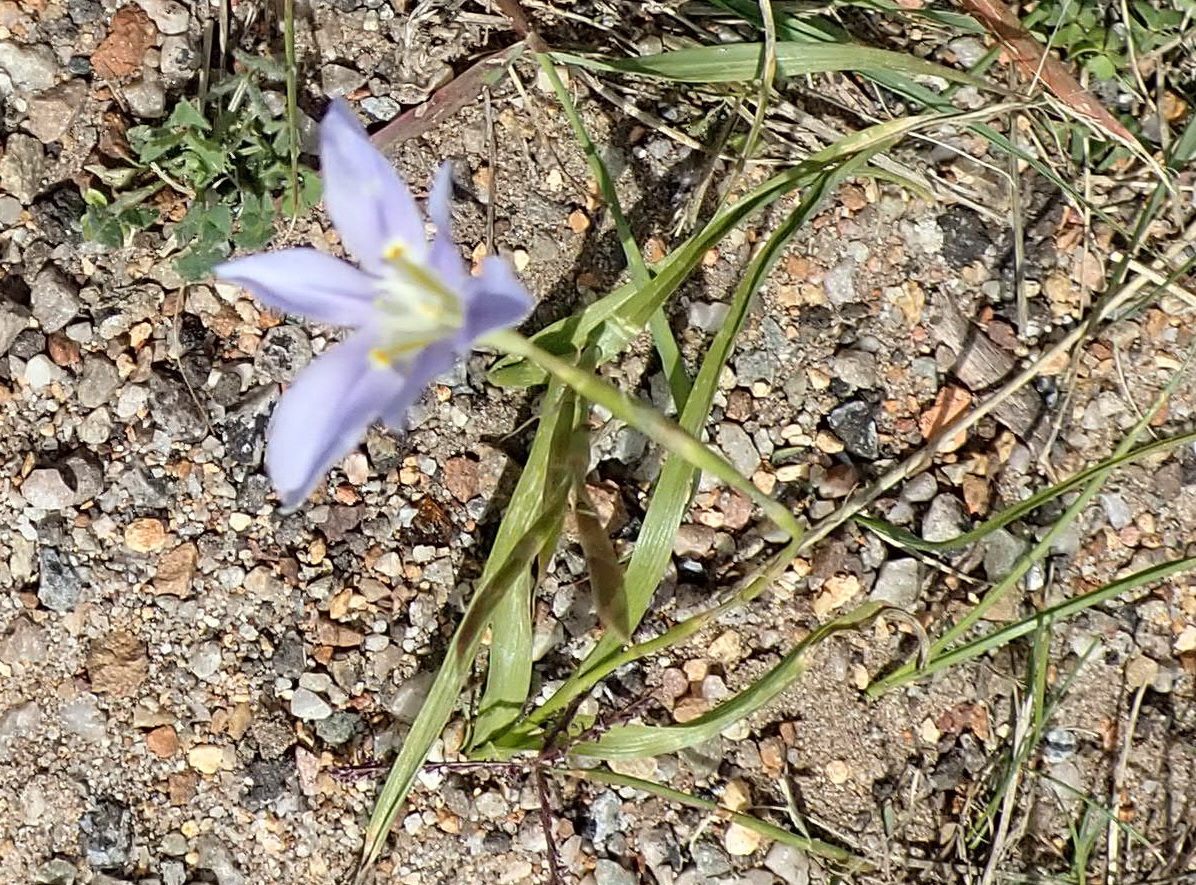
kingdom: Plantae
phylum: Tracheophyta
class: Liliopsida
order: Asparagales
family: Iridaceae
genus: Moraea
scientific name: Moraea polyanthos
